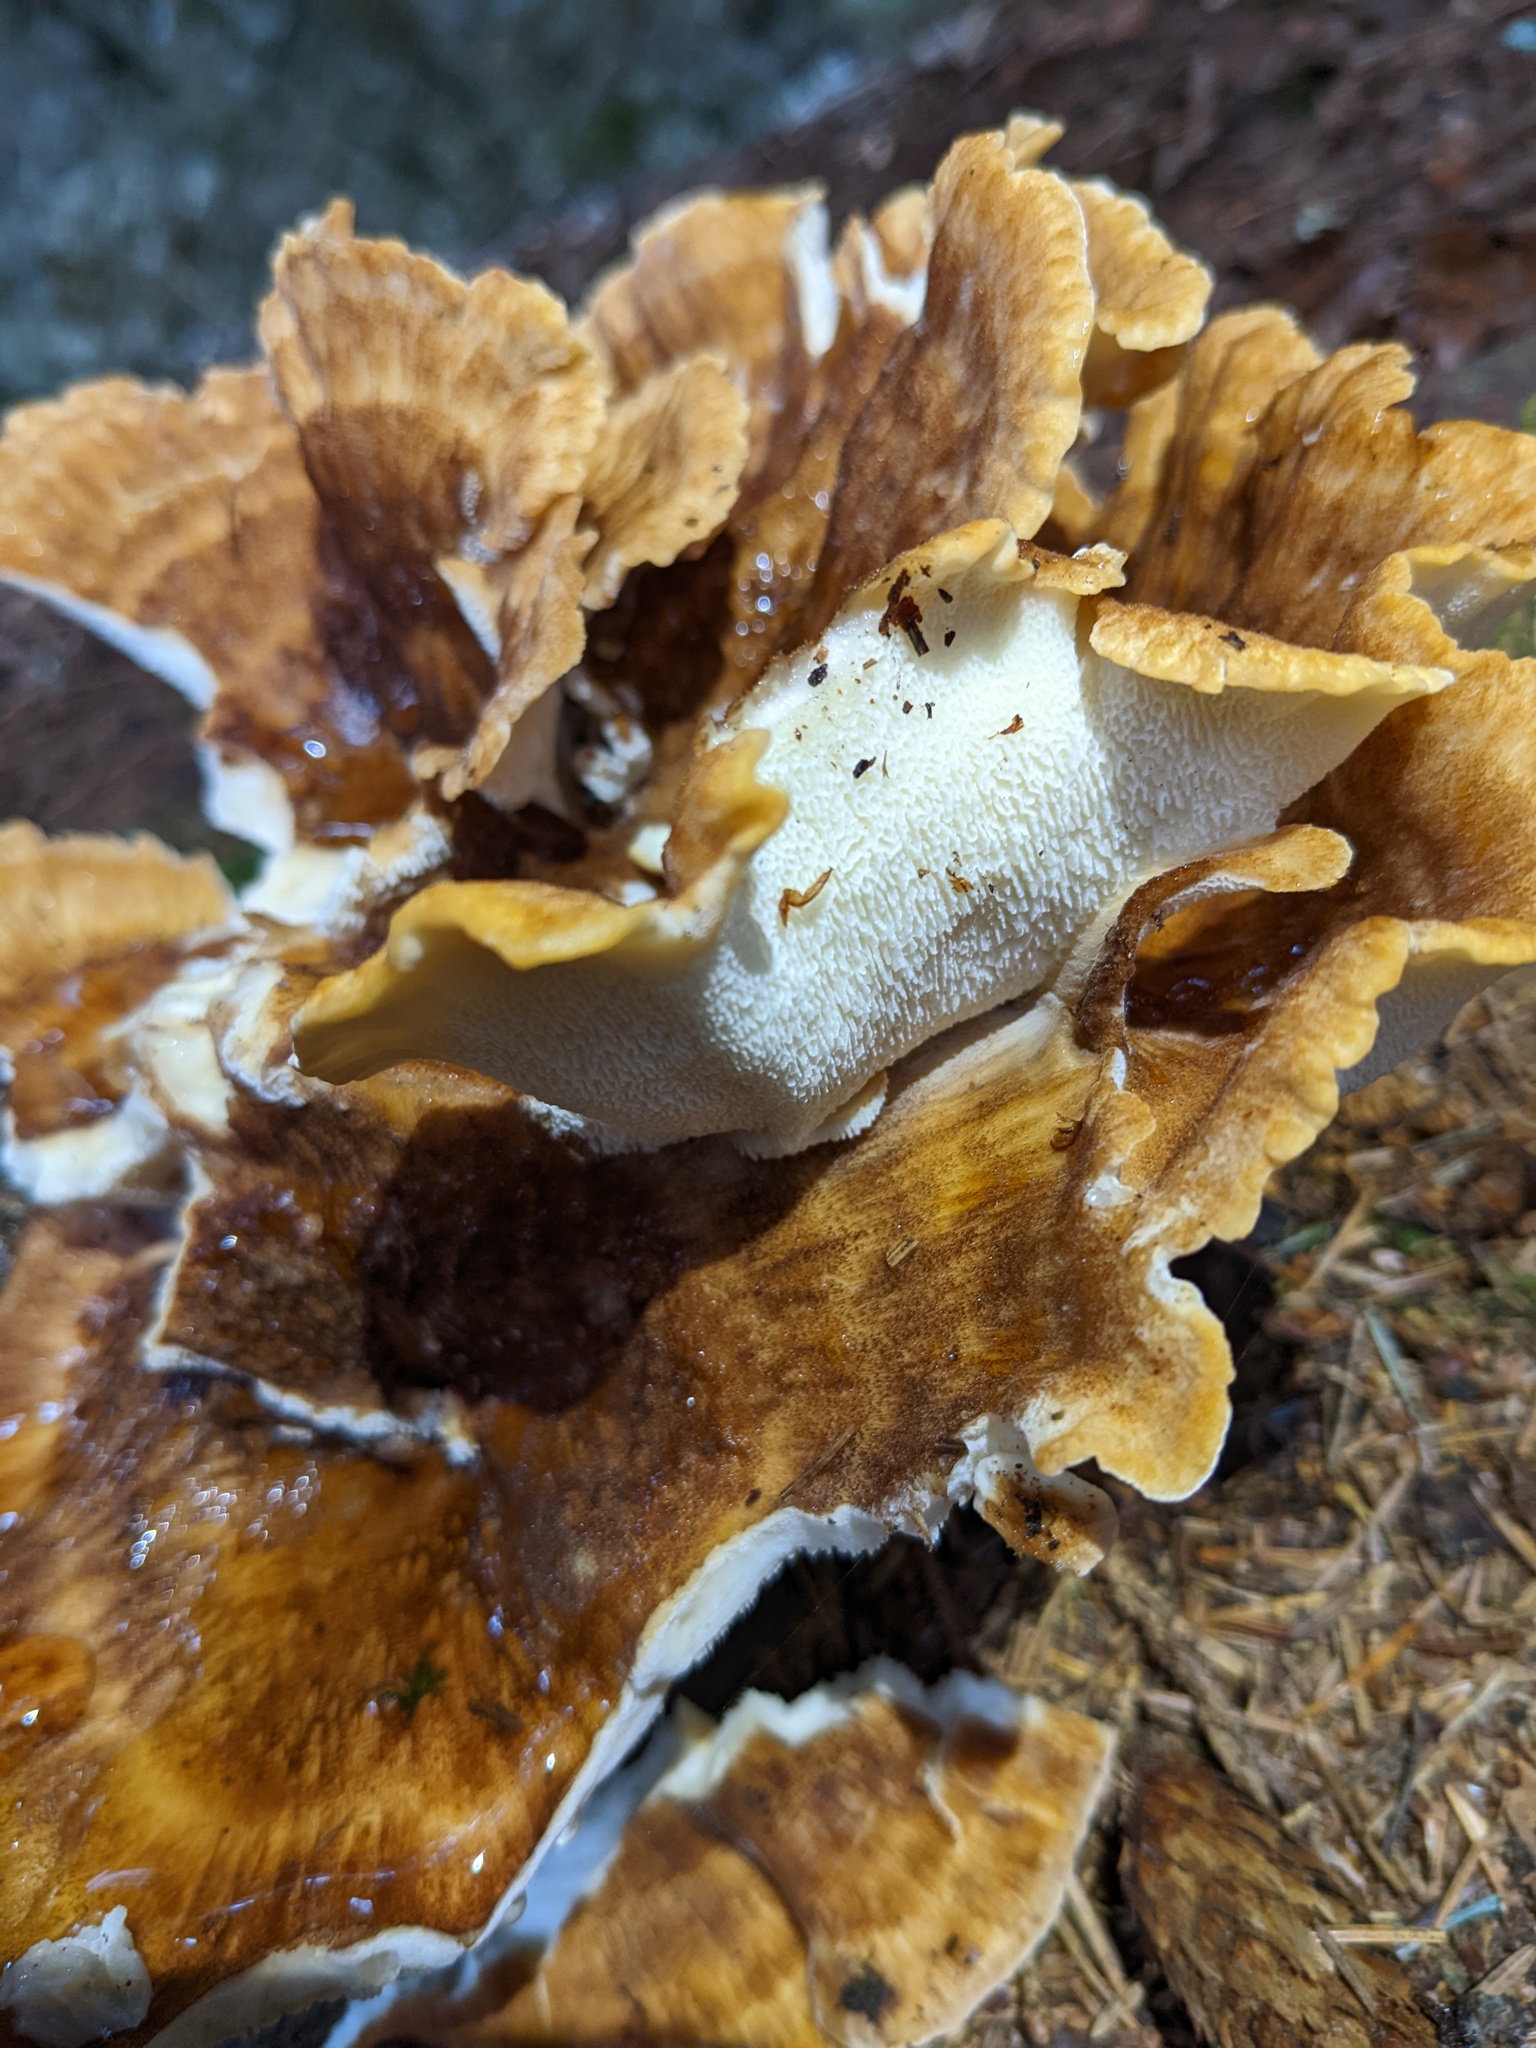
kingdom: Fungi
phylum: Basidiomycota
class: Agaricomycetes
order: Russulales
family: Bondarzewiaceae
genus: Bondarzewia
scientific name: Bondarzewia occidentalis
